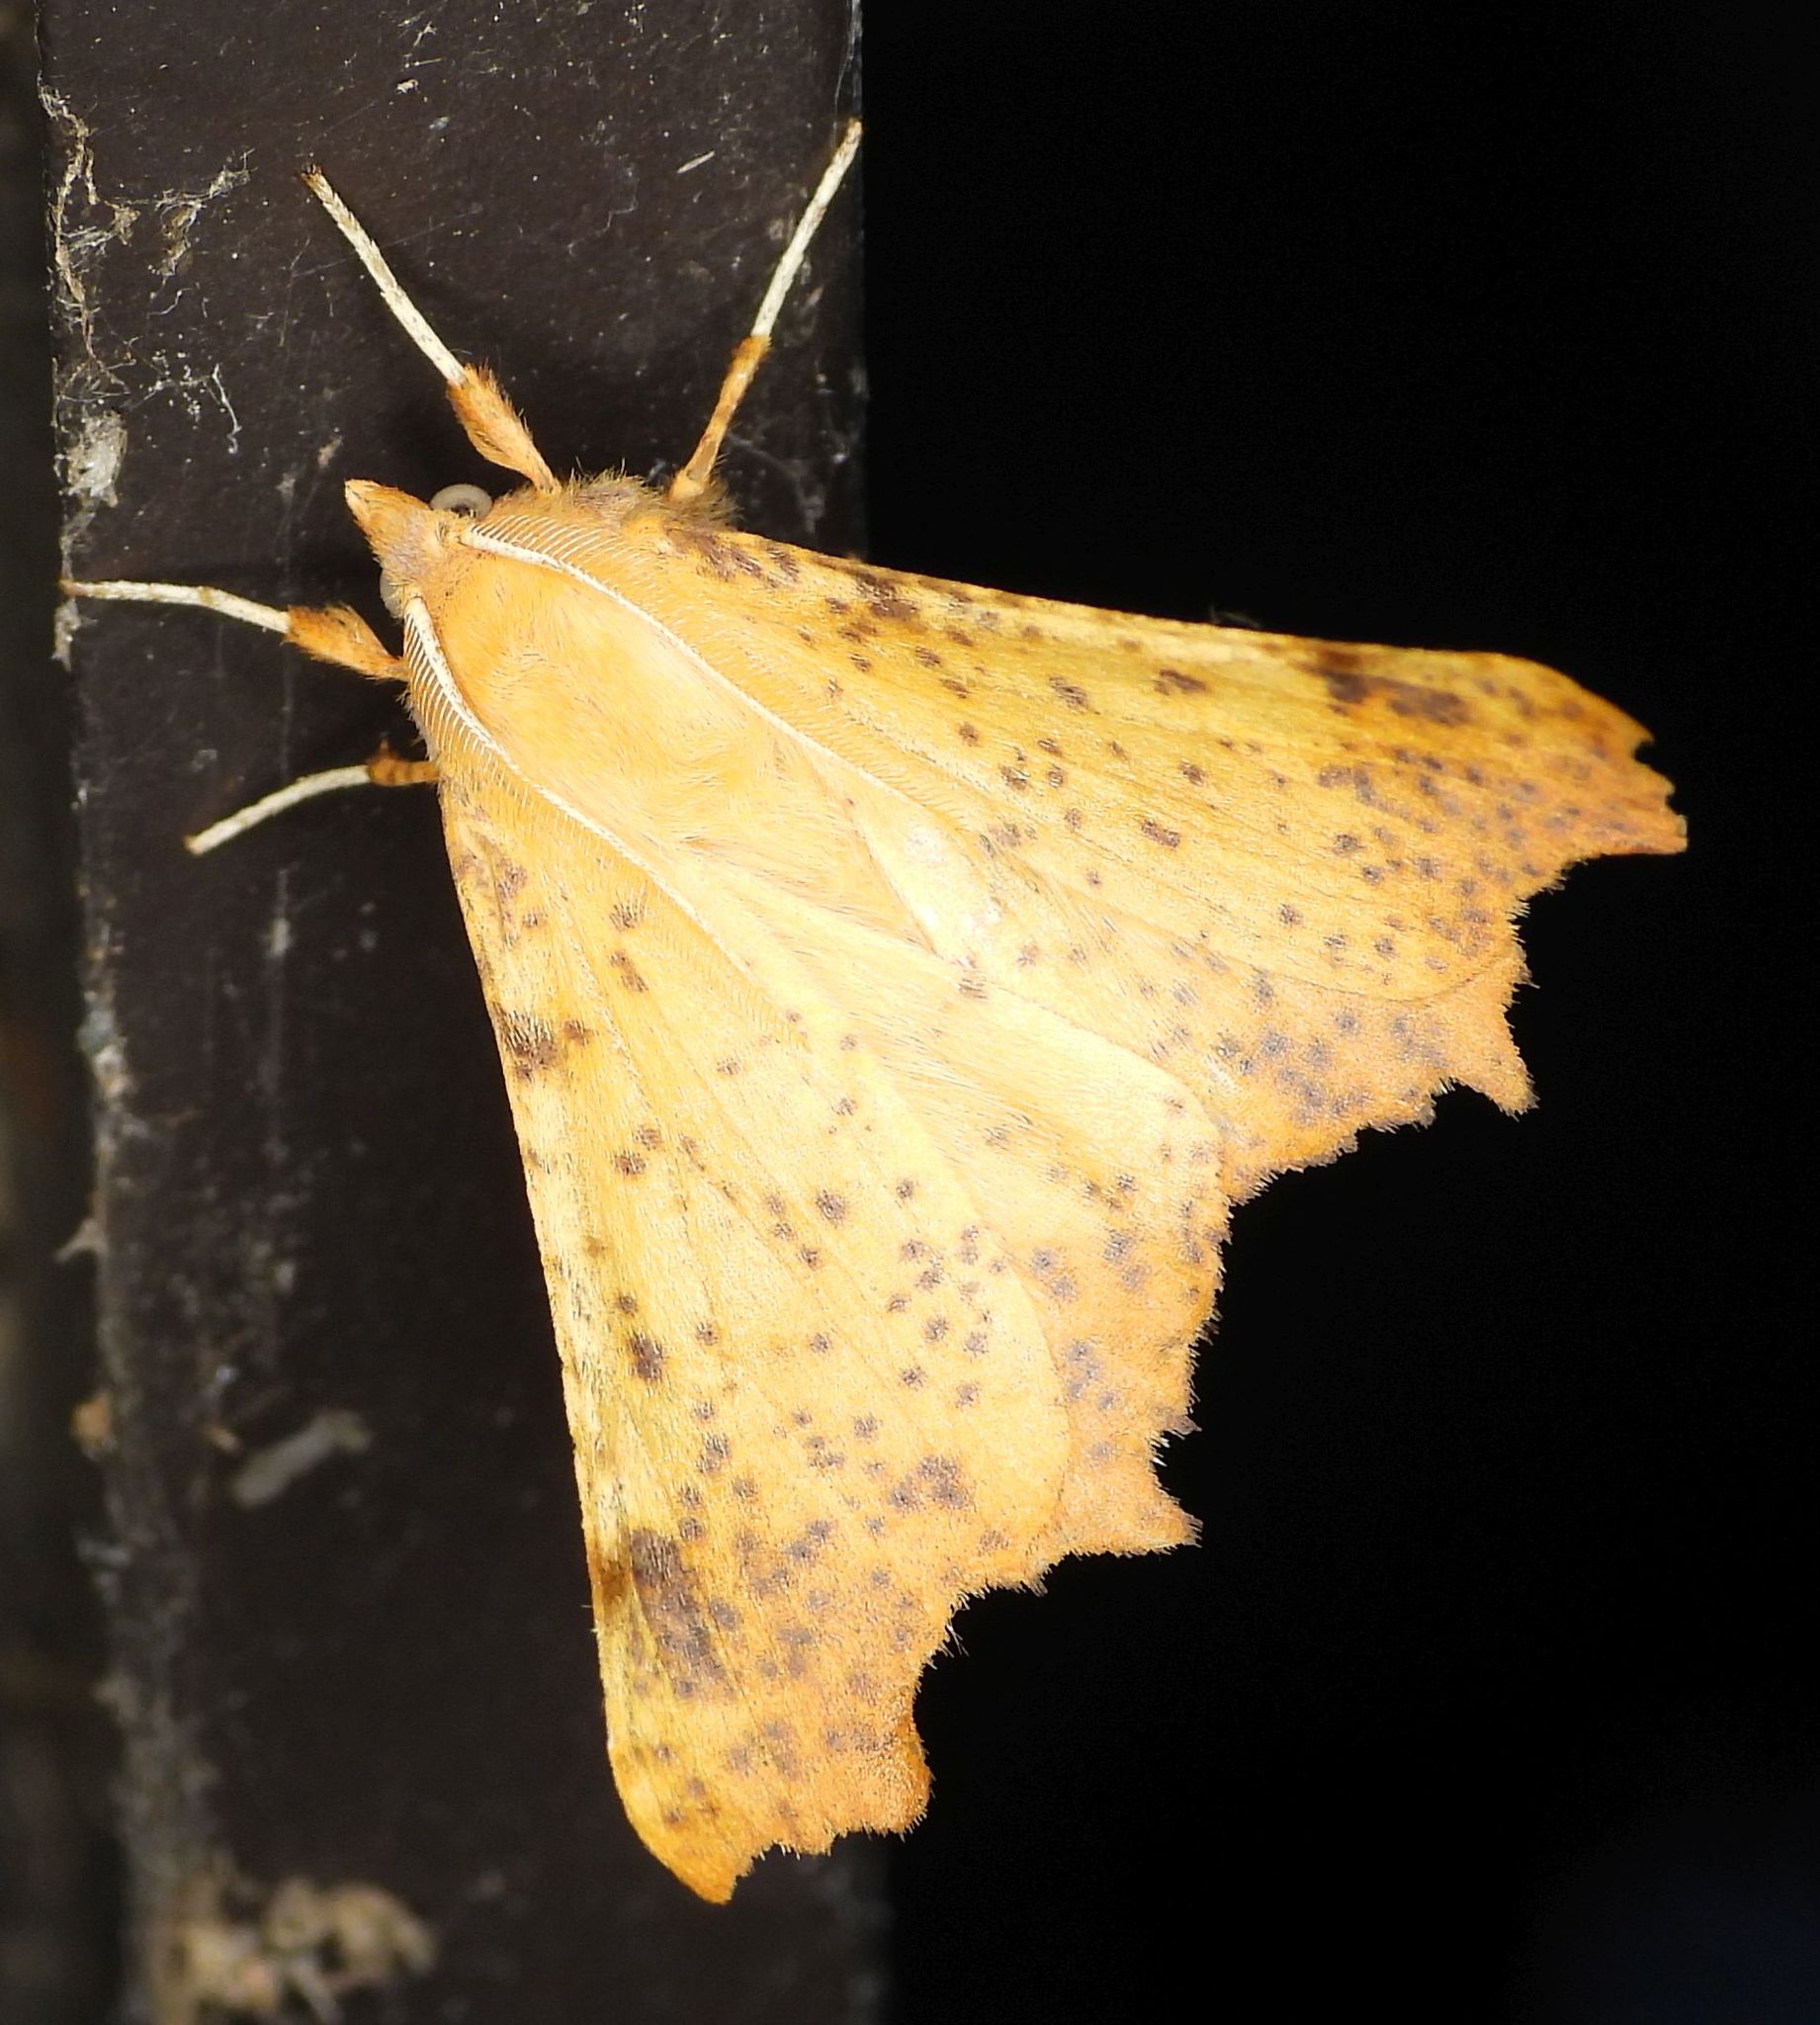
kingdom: Animalia
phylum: Arthropoda
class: Insecta
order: Lepidoptera
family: Geometridae
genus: Ennomos
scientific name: Ennomos magnaria
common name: Maple spanworm
